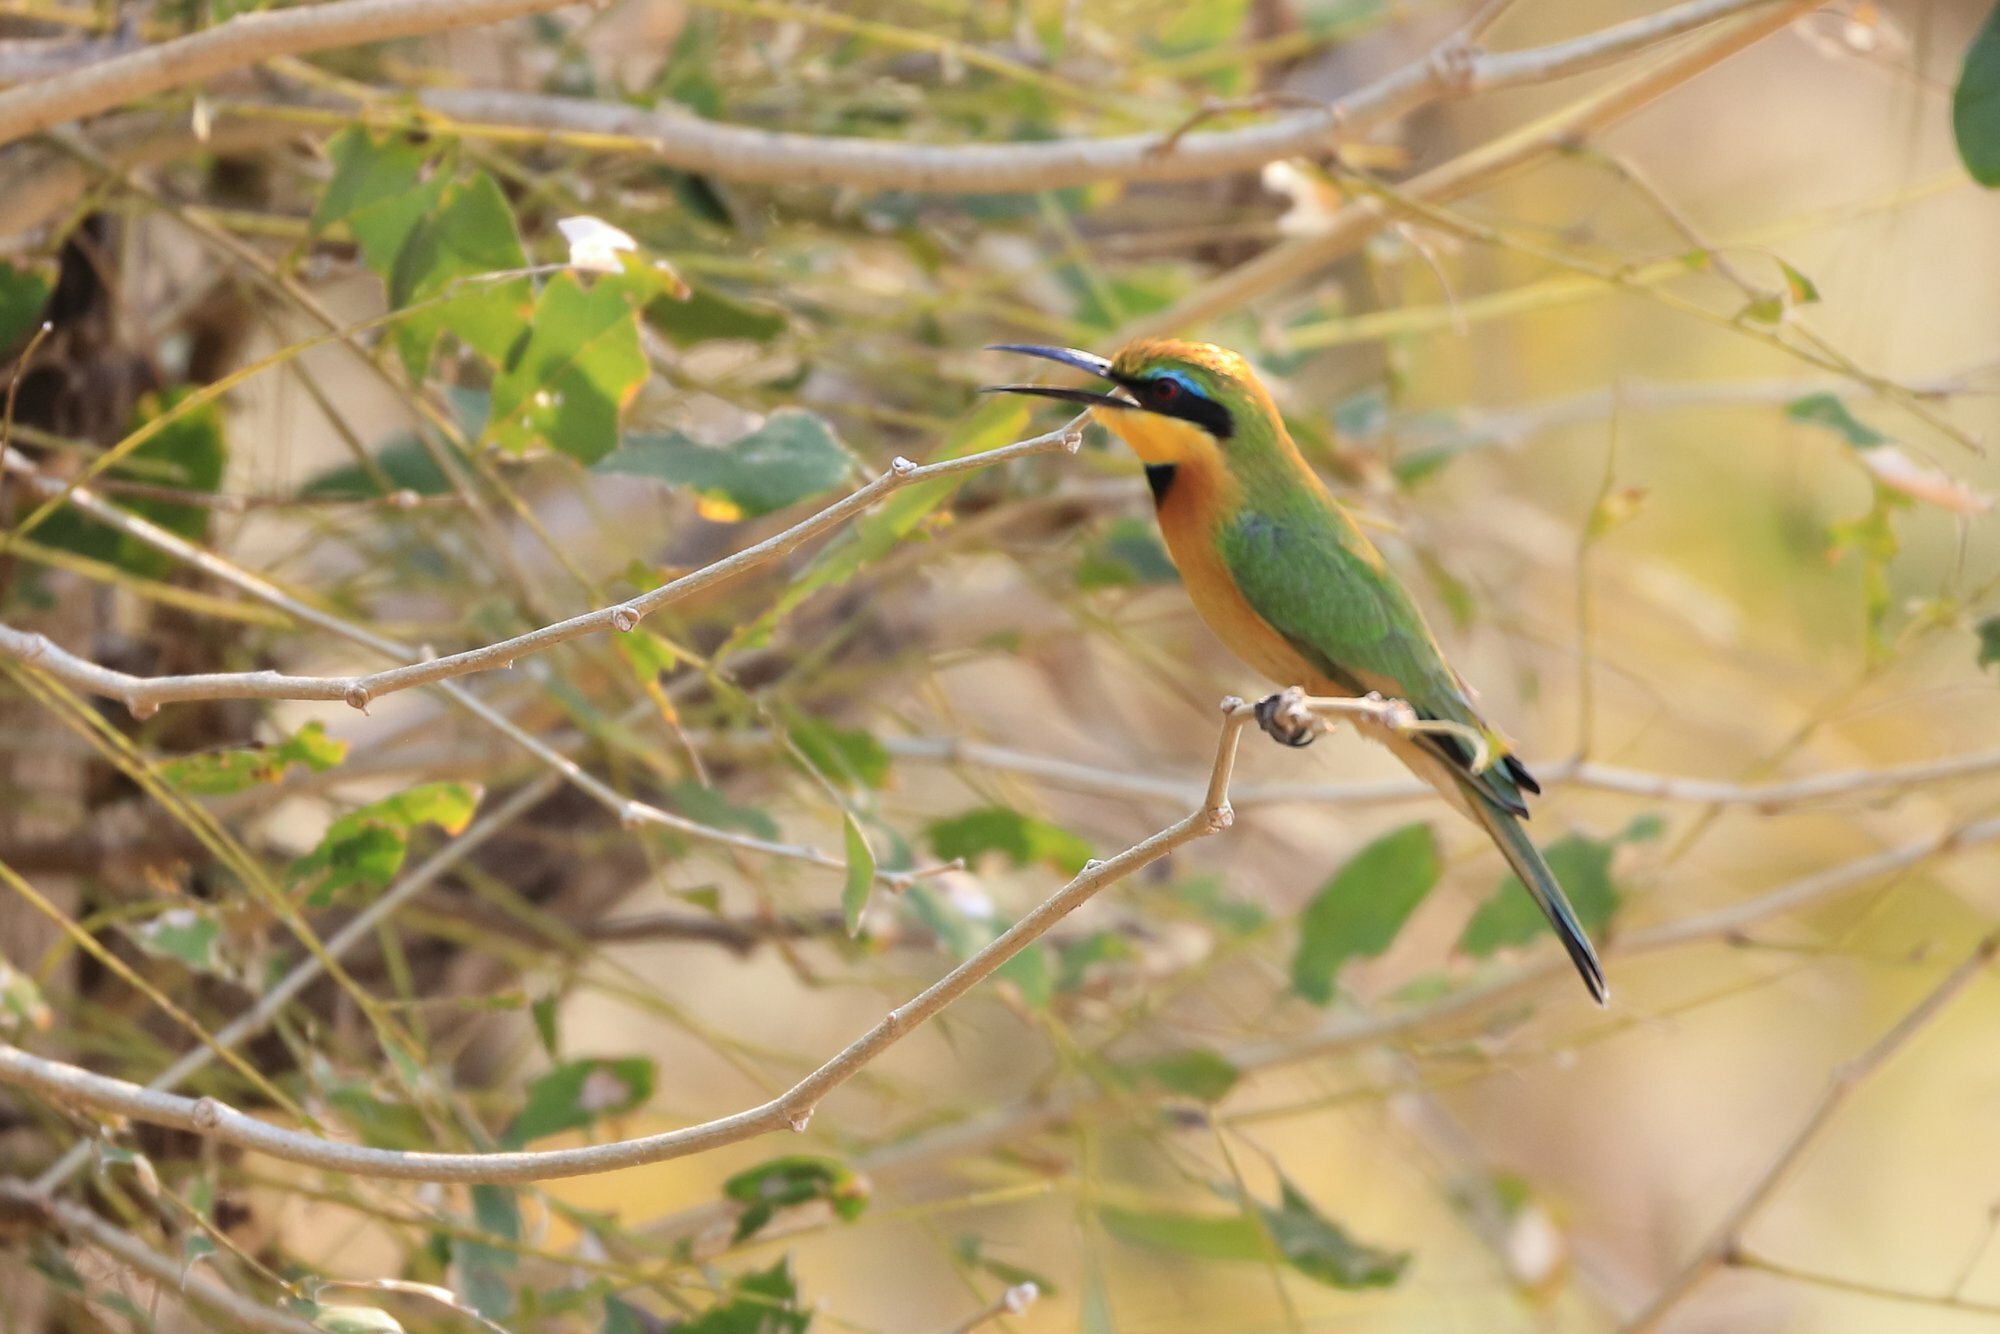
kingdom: Animalia
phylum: Chordata
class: Aves
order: Coraciiformes
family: Meropidae
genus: Merops
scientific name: Merops pusillus
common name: Little bee-eater
